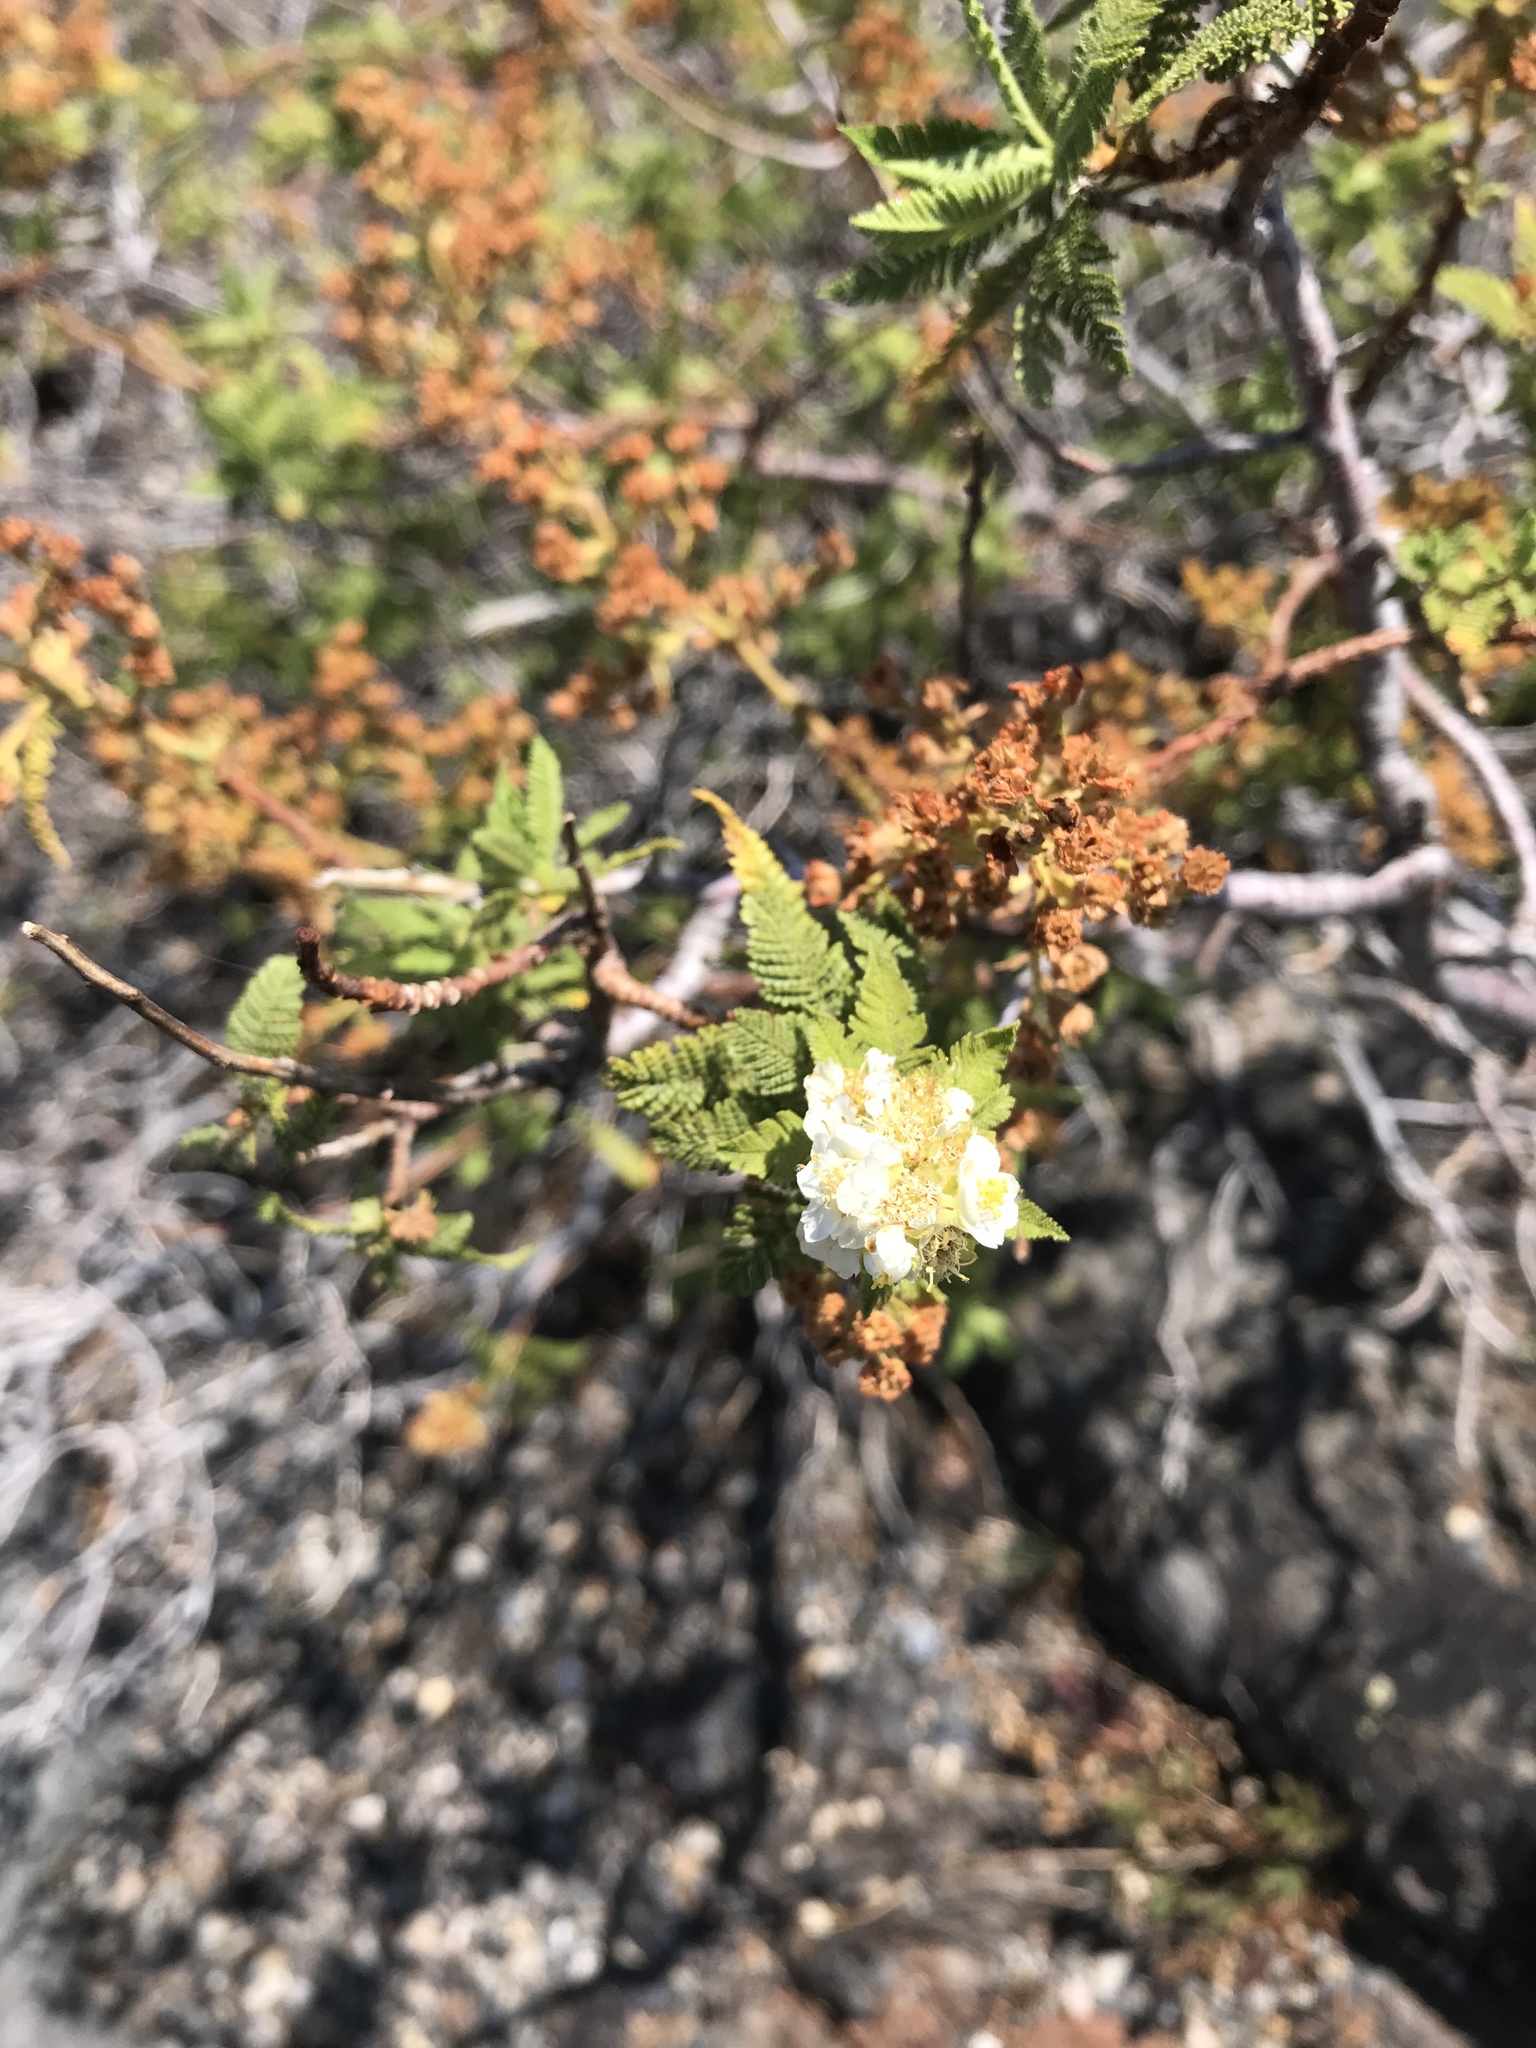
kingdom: Plantae
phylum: Tracheophyta
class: Magnoliopsida
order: Rosales
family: Rosaceae
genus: Chamaebatiaria
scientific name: Chamaebatiaria millefolium
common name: Fernbush
